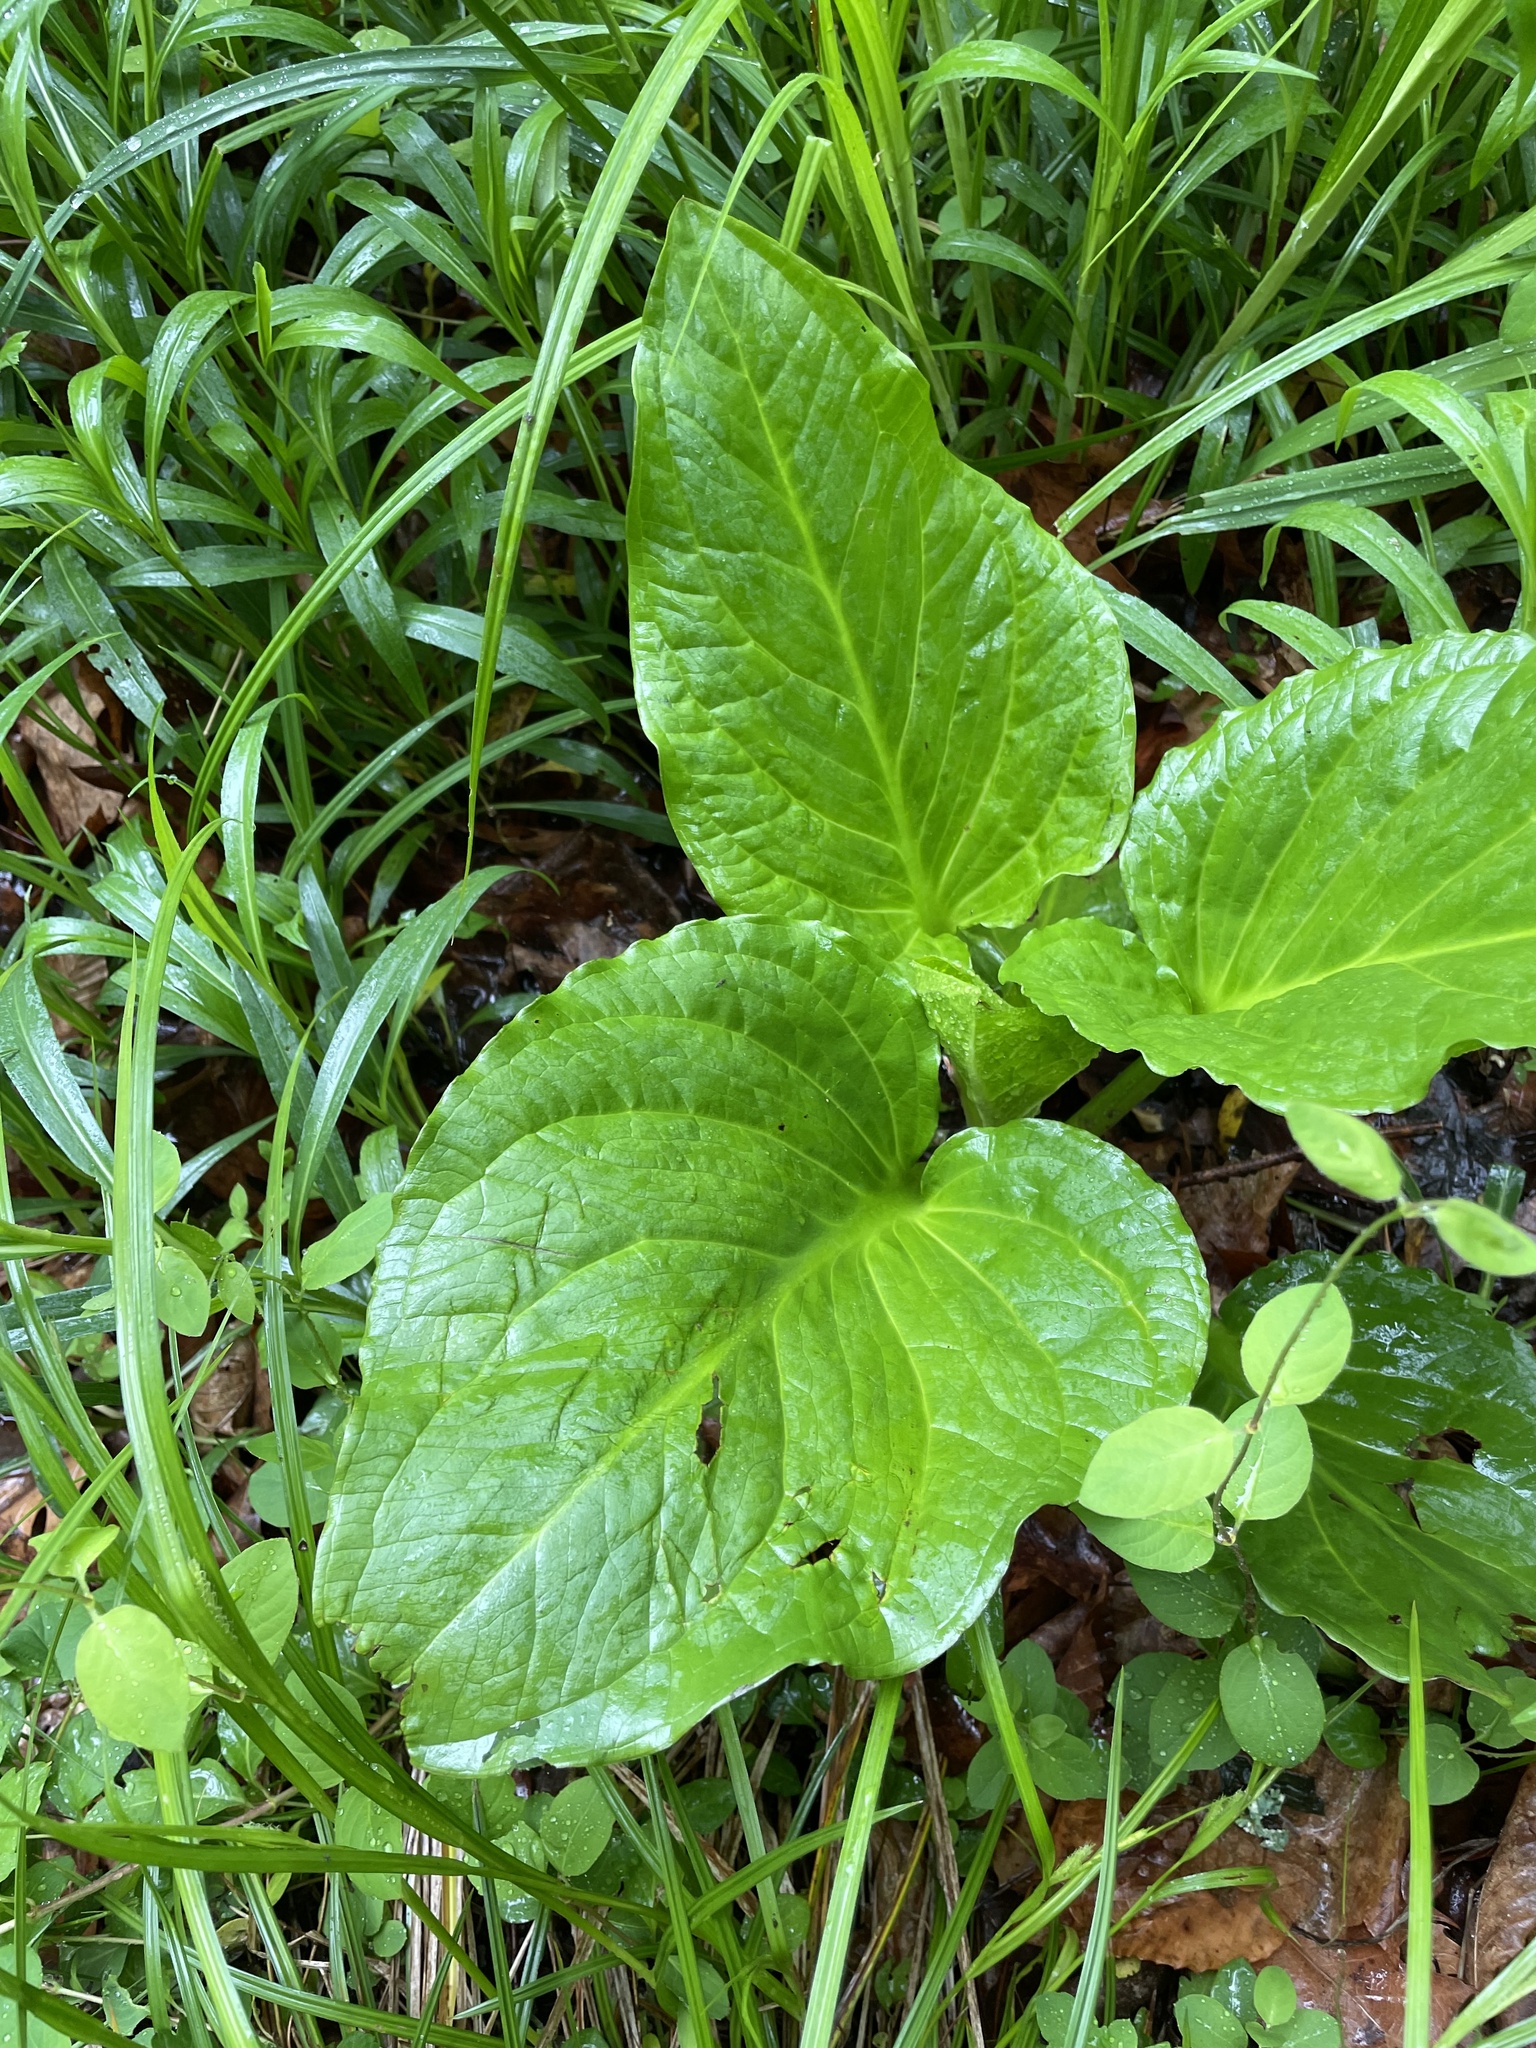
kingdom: Plantae
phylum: Tracheophyta
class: Liliopsida
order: Alismatales
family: Araceae
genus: Symplocarpus
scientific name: Symplocarpus foetidus
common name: Eastern skunk cabbage
